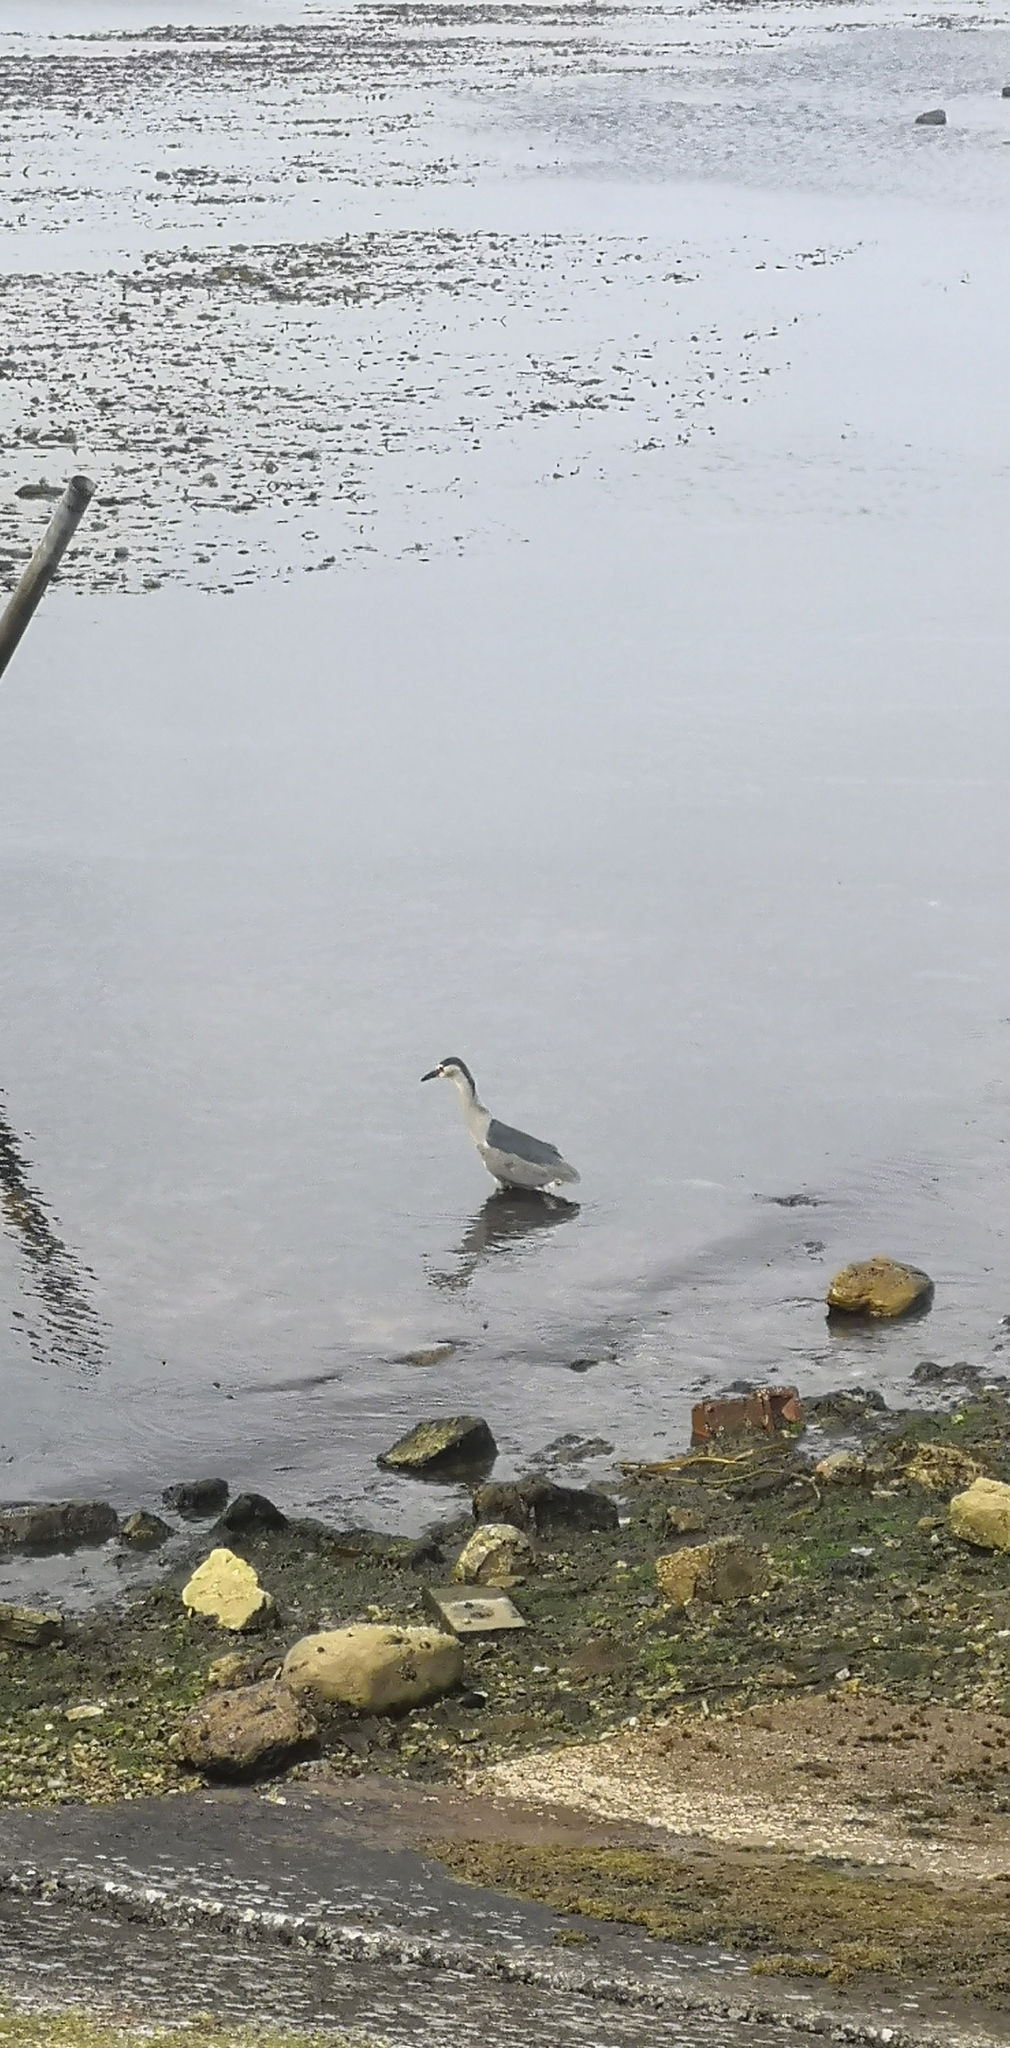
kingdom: Animalia
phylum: Chordata
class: Aves
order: Pelecaniformes
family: Ardeidae
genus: Nycticorax
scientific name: Nycticorax nycticorax
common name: Black-crowned night heron
